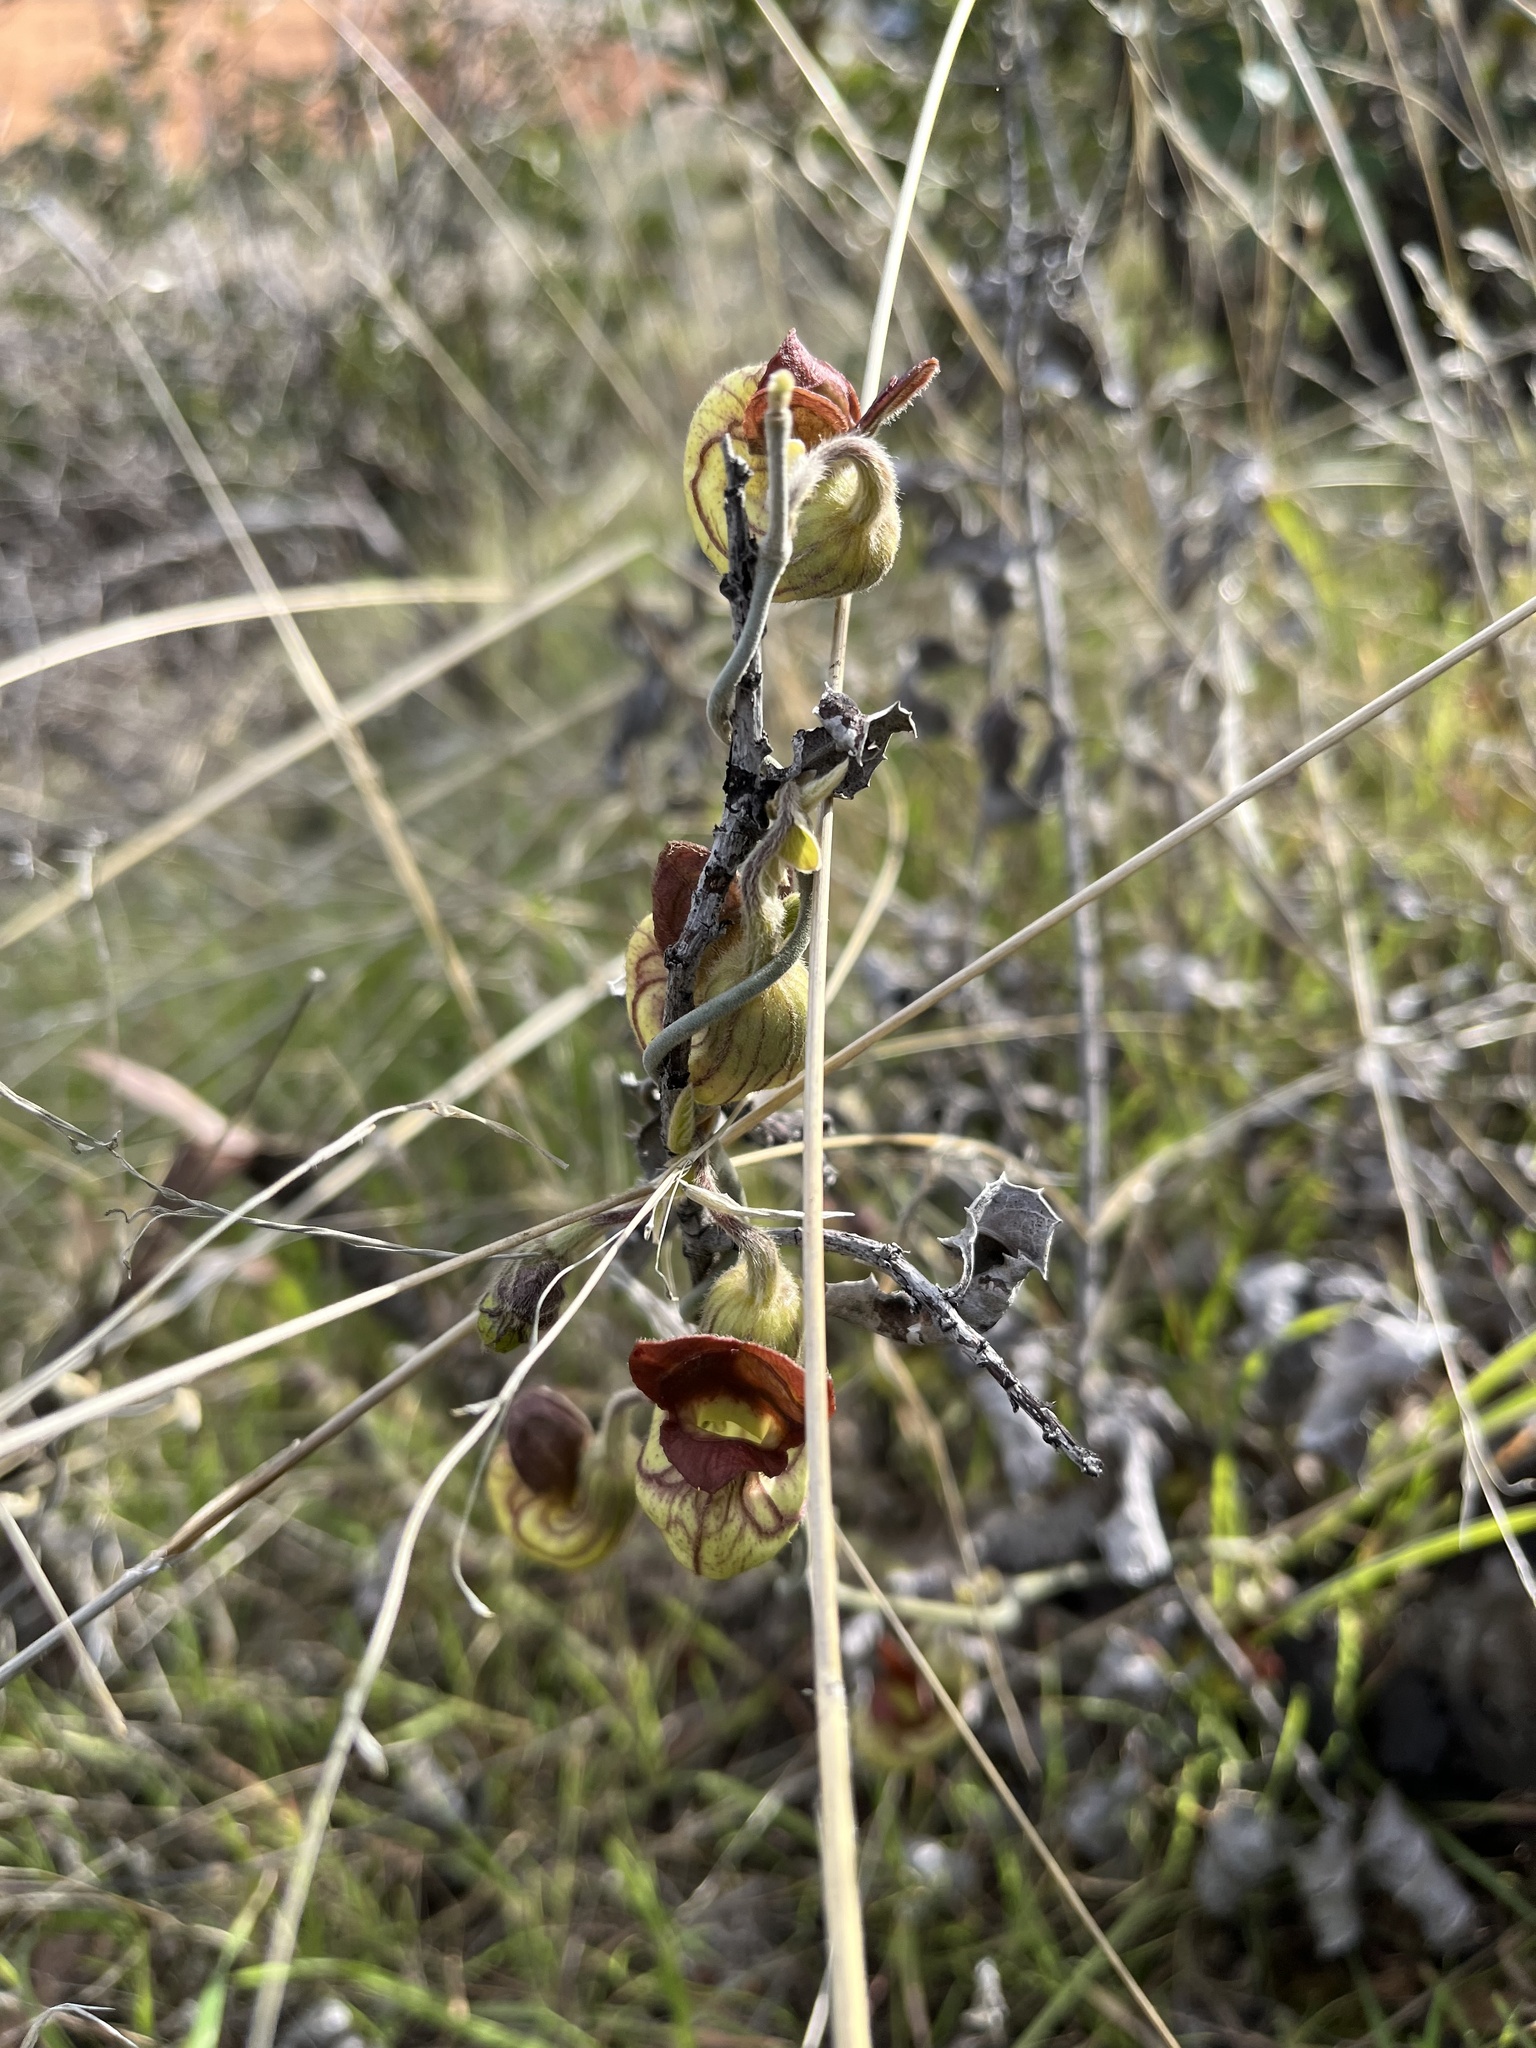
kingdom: Plantae
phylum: Tracheophyta
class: Magnoliopsida
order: Piperales
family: Aristolochiaceae
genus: Isotrema
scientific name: Isotrema californicum
